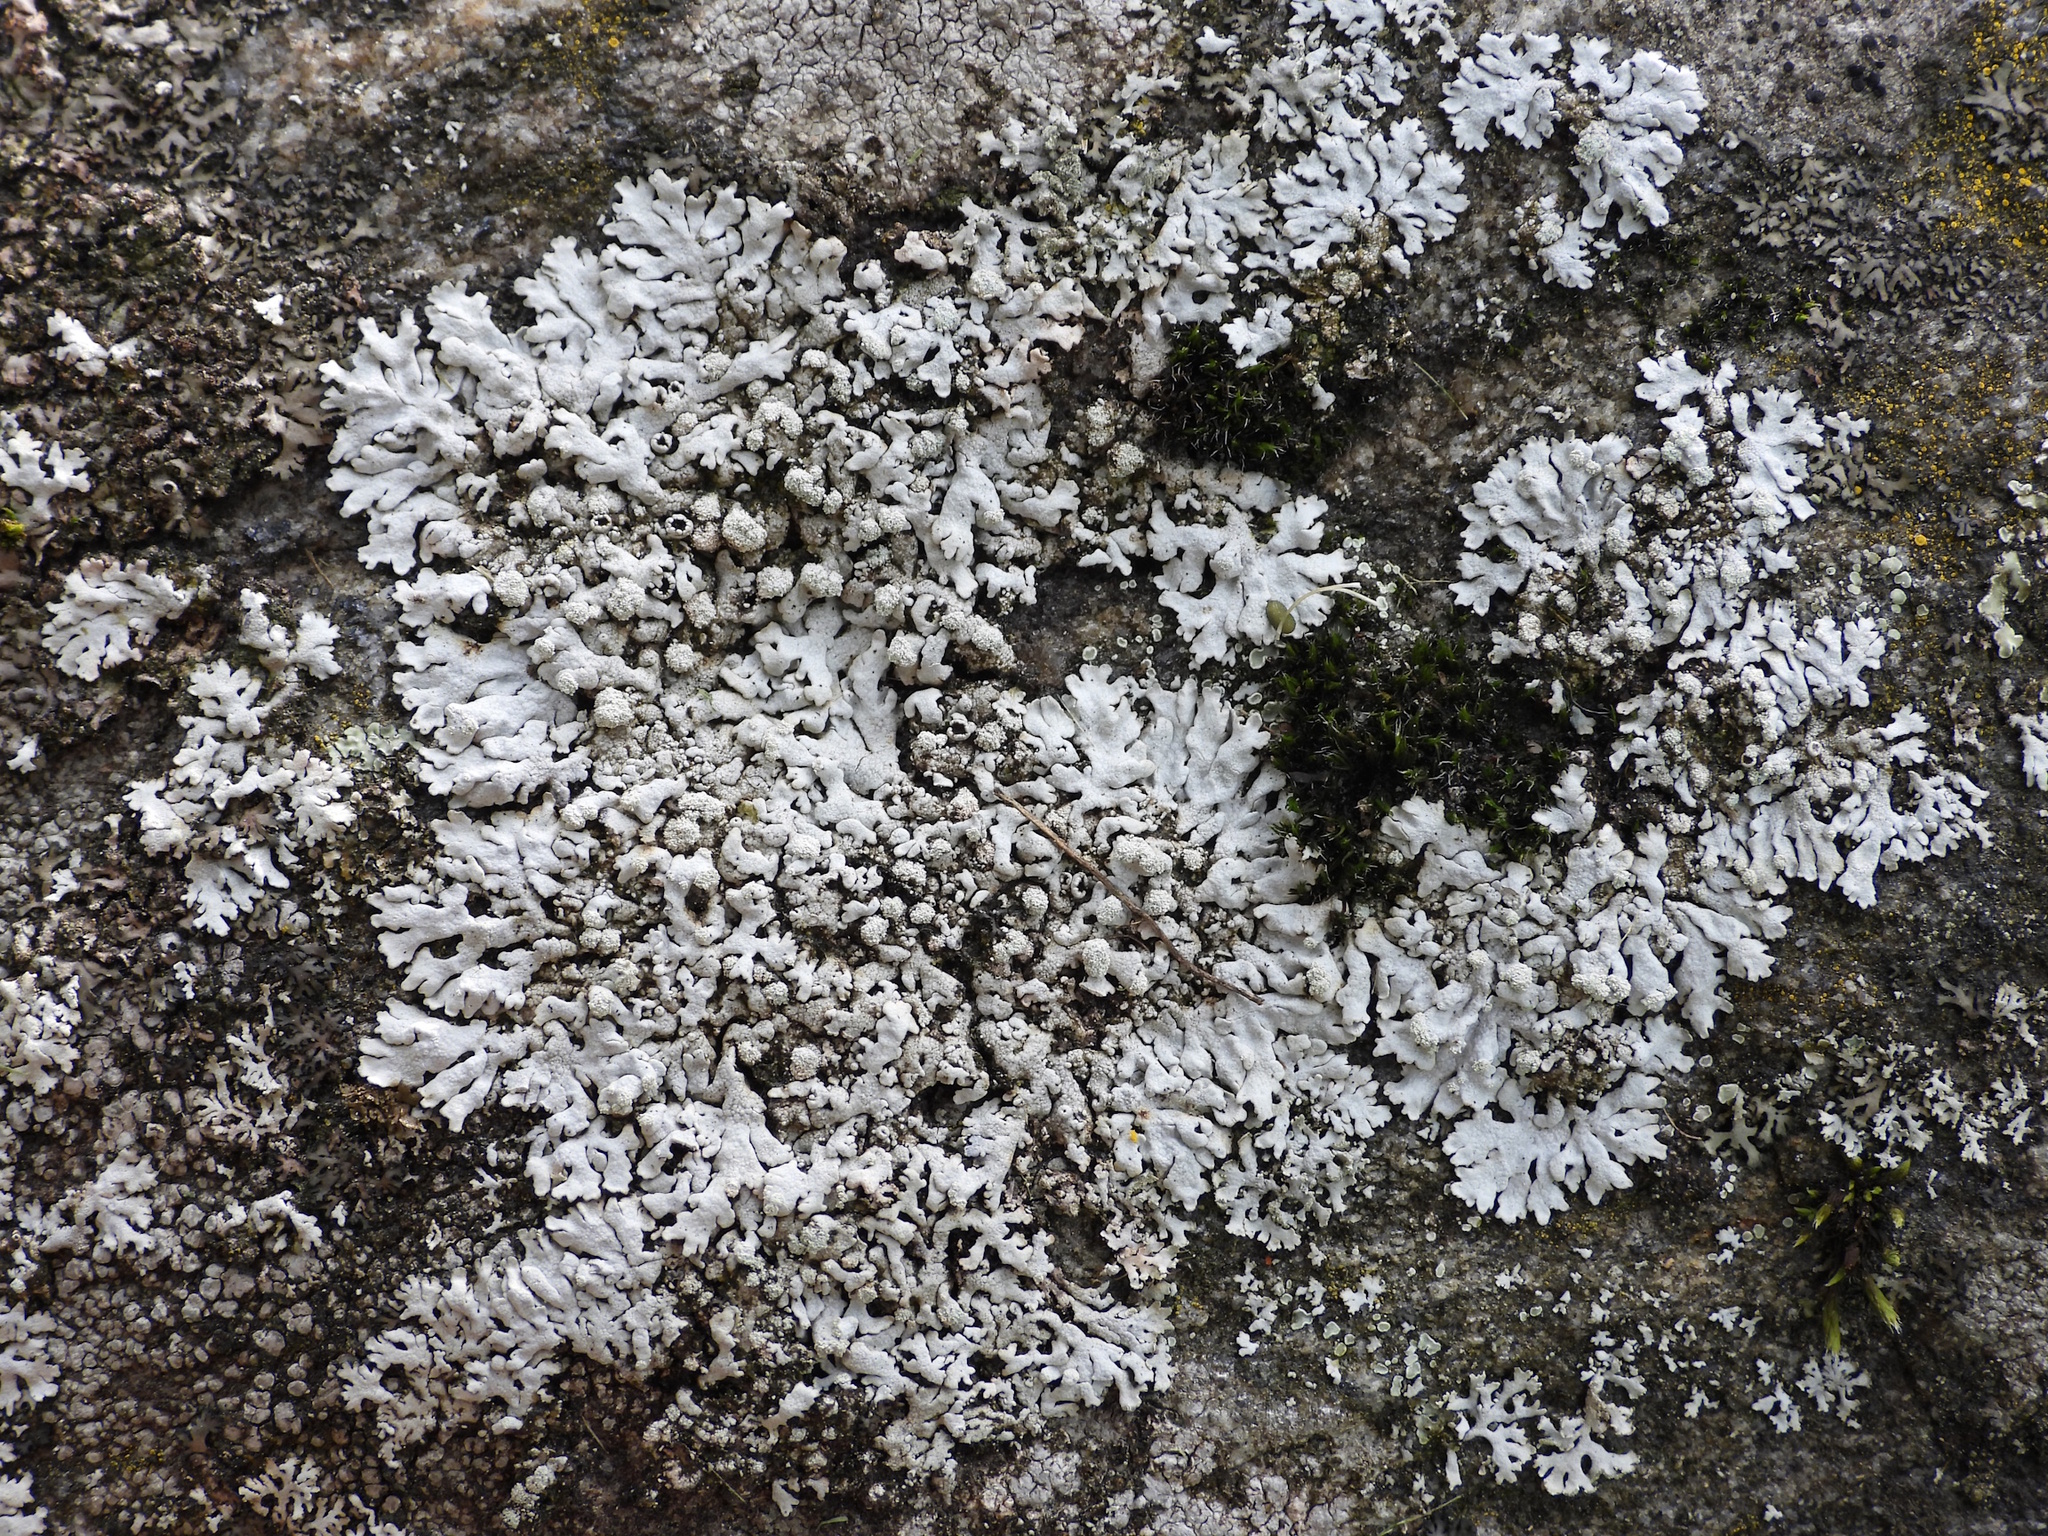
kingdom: Fungi
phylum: Ascomycota
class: Lecanoromycetes
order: Caliciales
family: Physciaceae
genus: Physcia
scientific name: Physcia caesia
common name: Blue-gray rosette lichen
